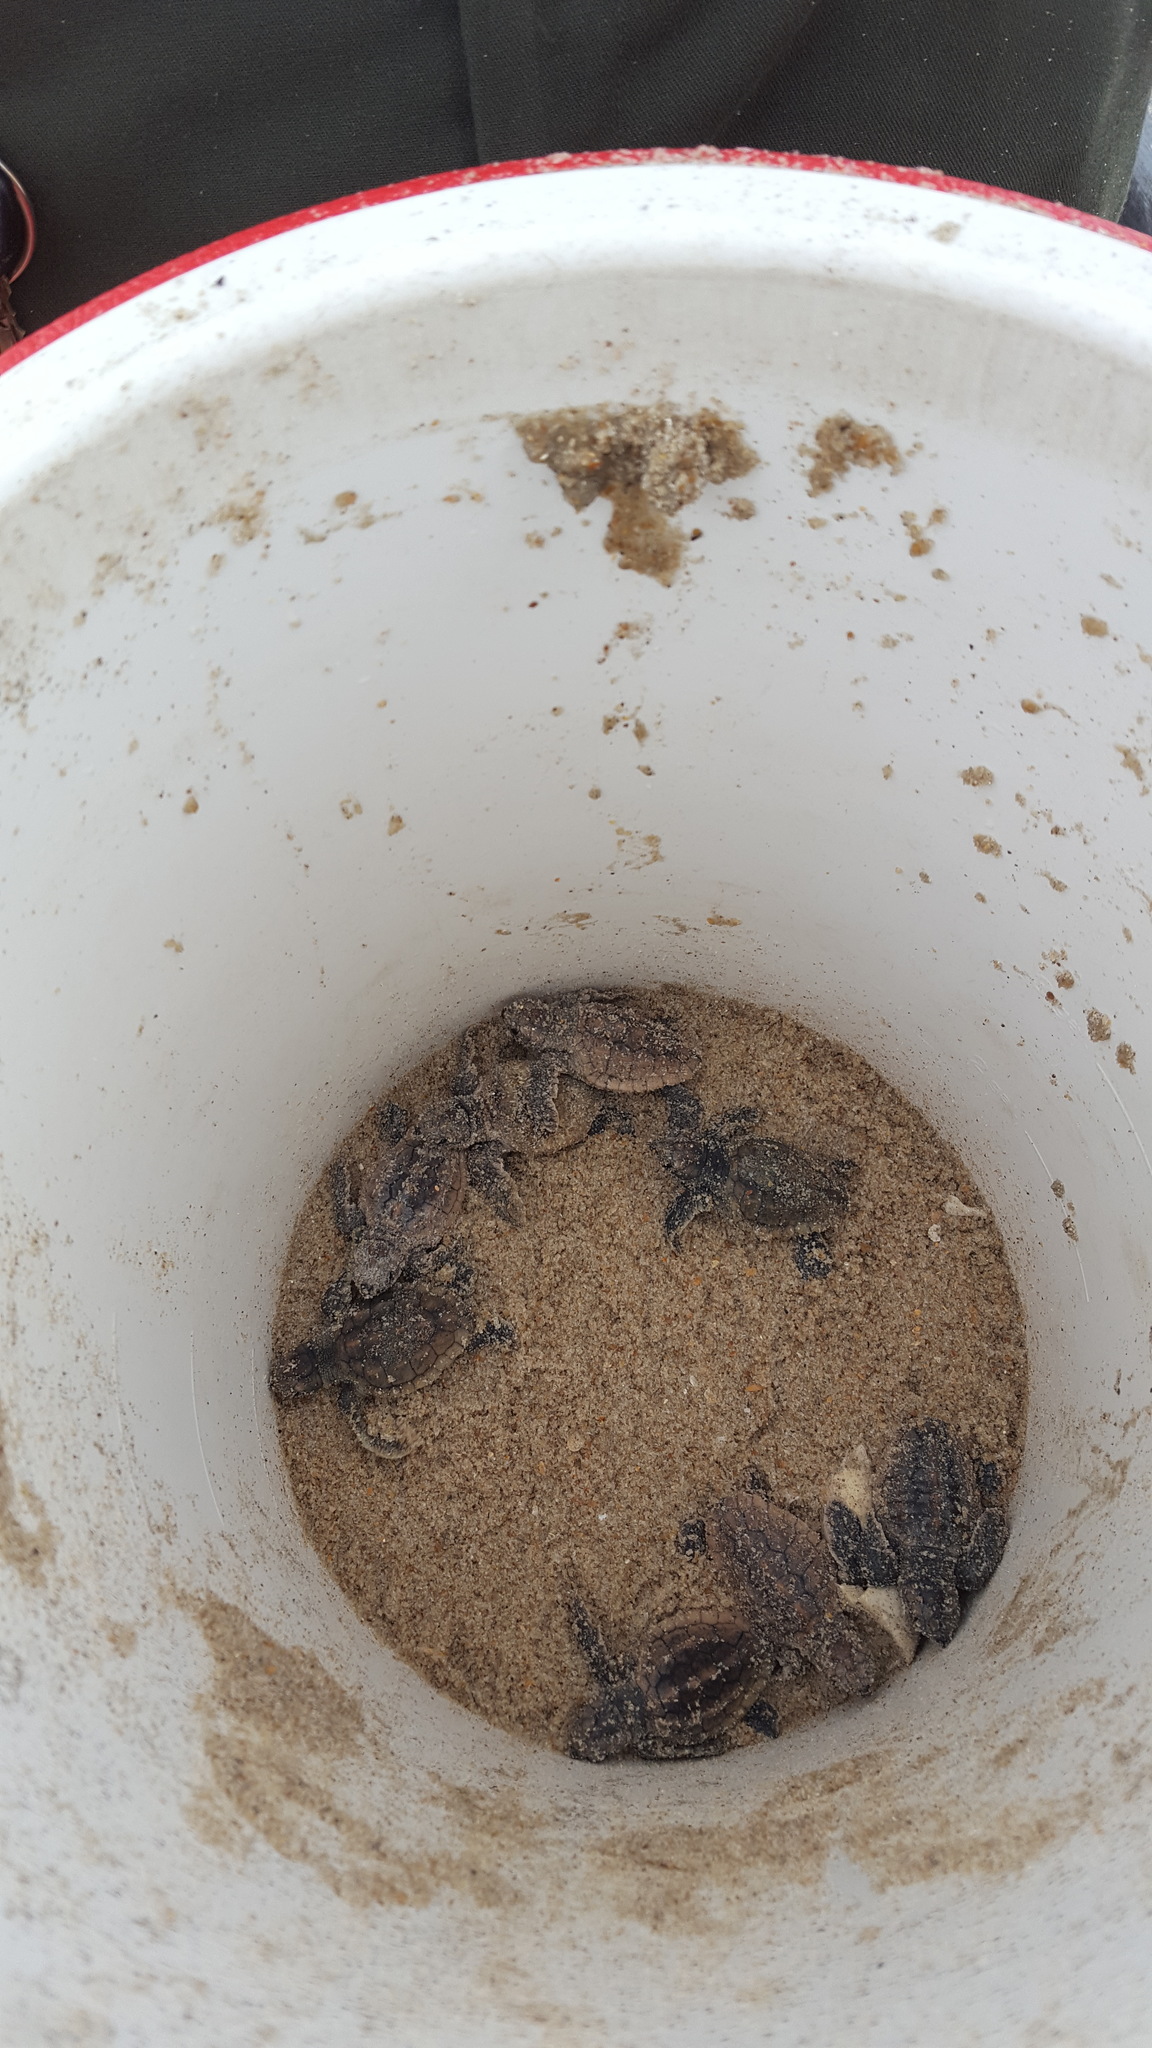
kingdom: Animalia
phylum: Chordata
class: Testudines
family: Cheloniidae
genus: Caretta
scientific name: Caretta caretta
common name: Loggerhead sea turtle
